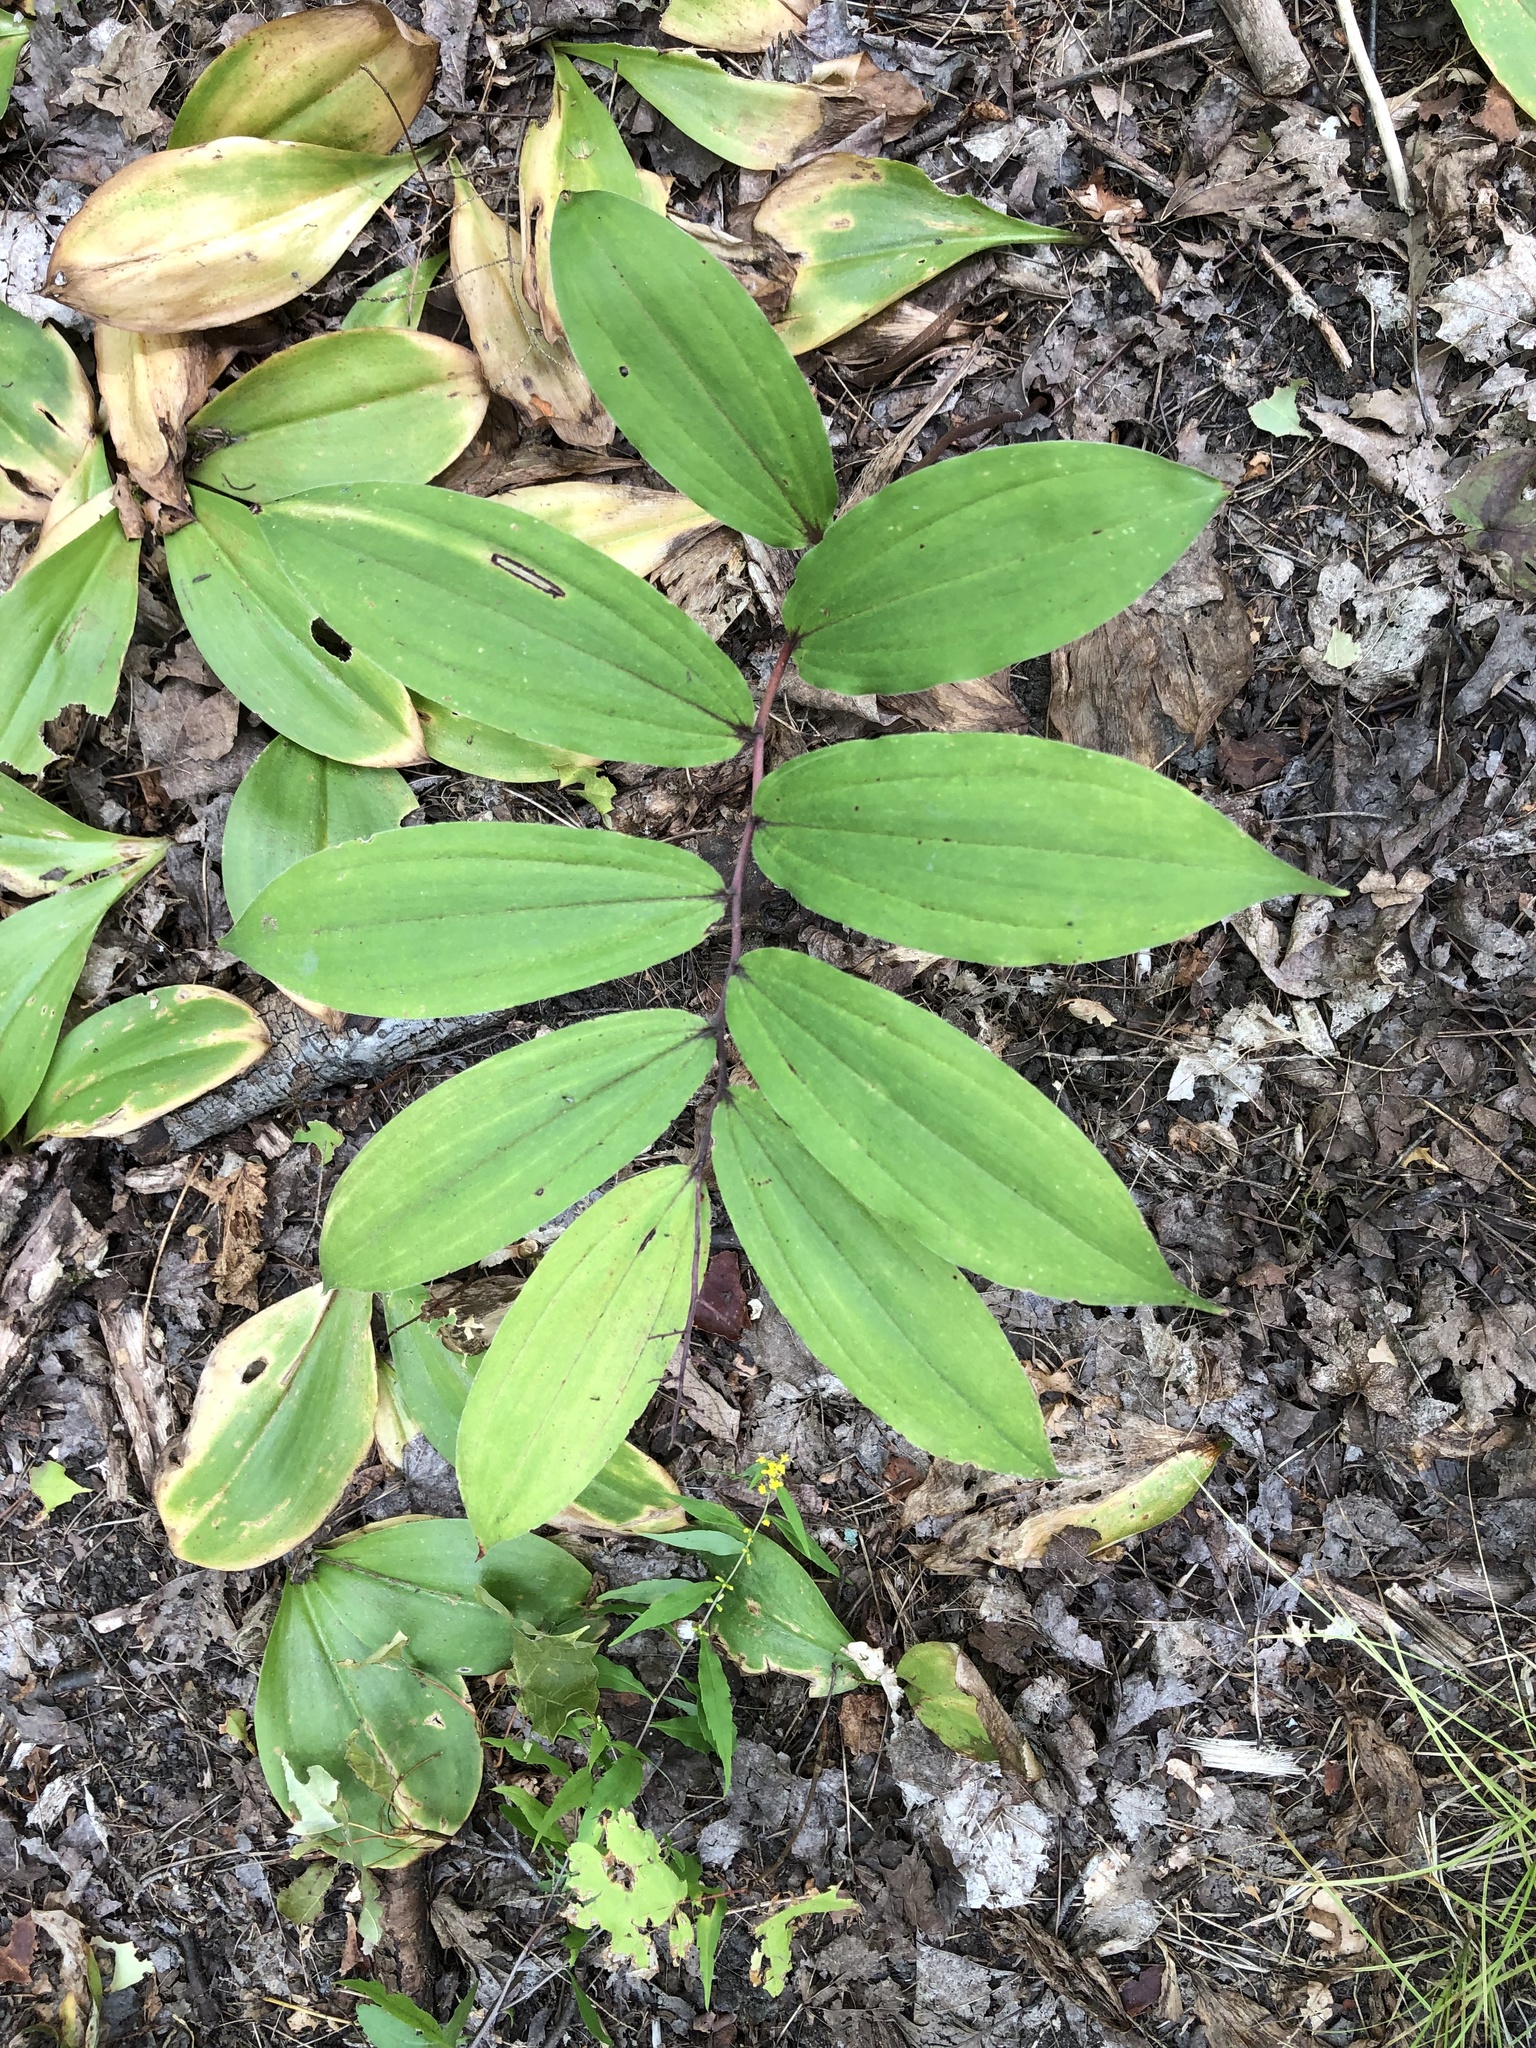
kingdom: Plantae
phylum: Tracheophyta
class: Liliopsida
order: Asparagales
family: Asparagaceae
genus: Maianthemum
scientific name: Maianthemum racemosum
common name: False spikenard
